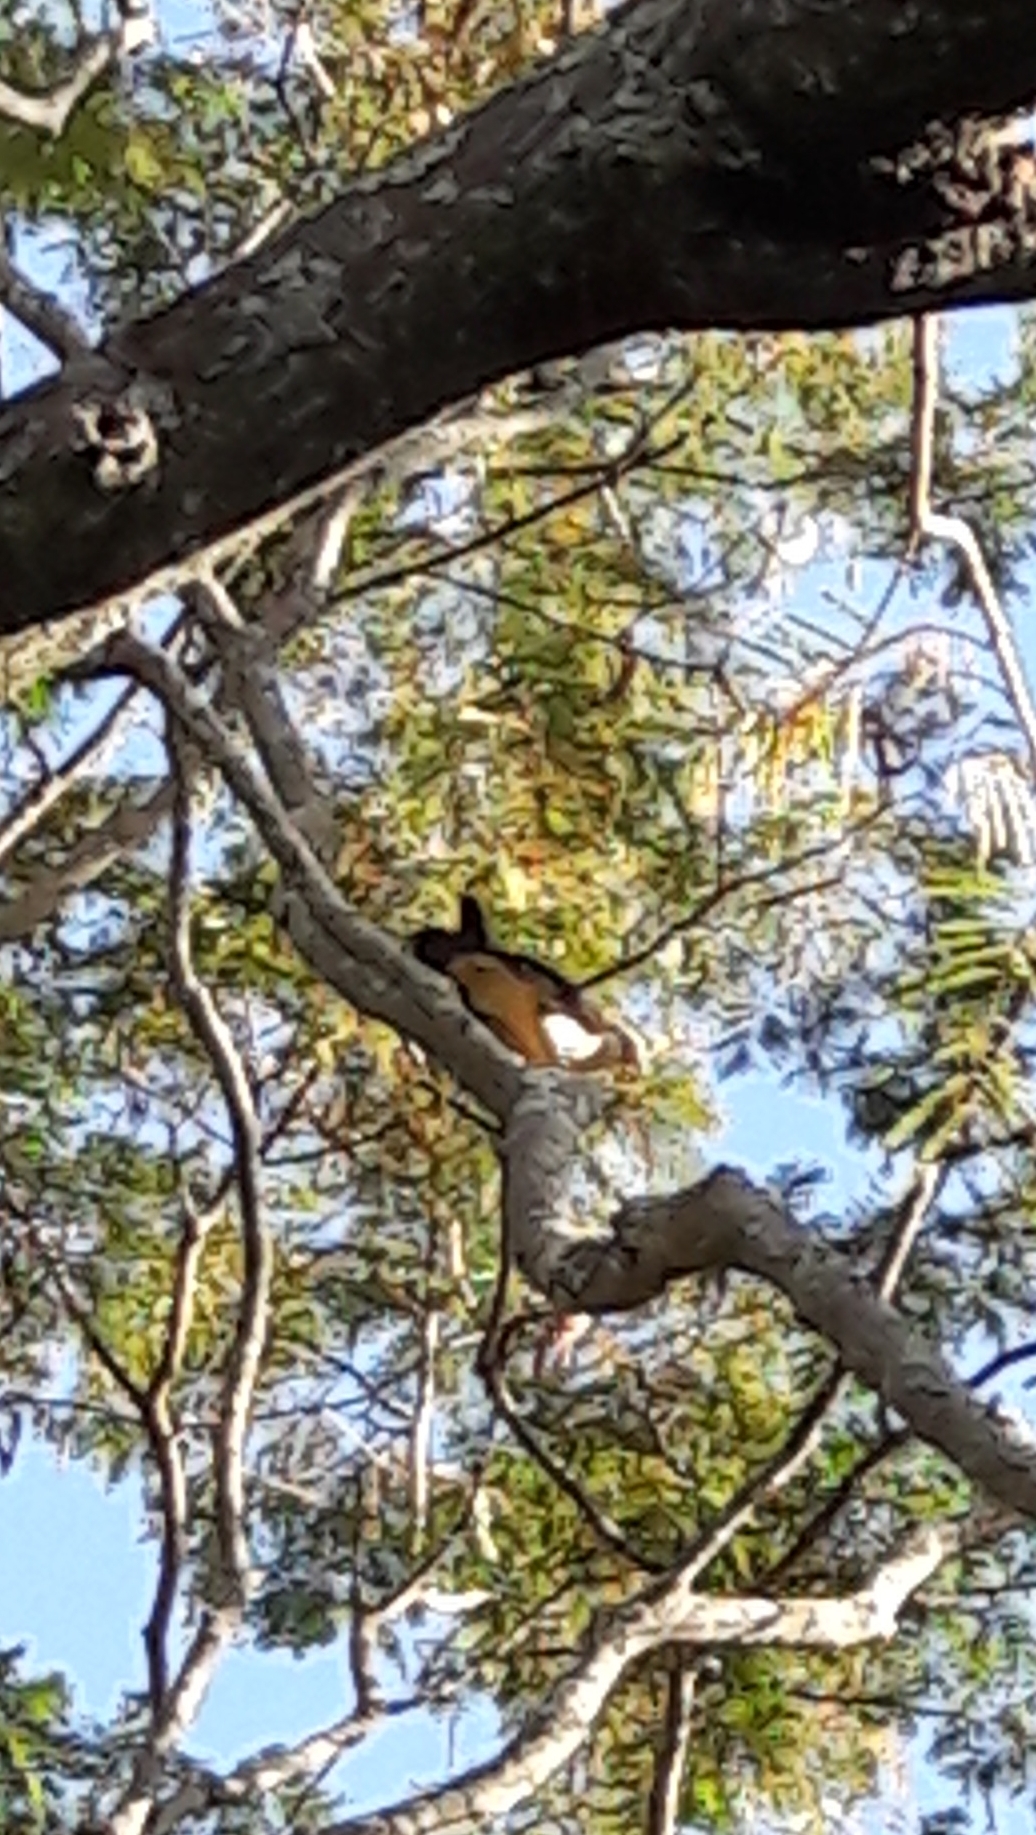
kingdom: Animalia
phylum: Chordata
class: Aves
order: Falconiformes
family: Falconidae
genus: Daptrius
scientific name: Daptrius
